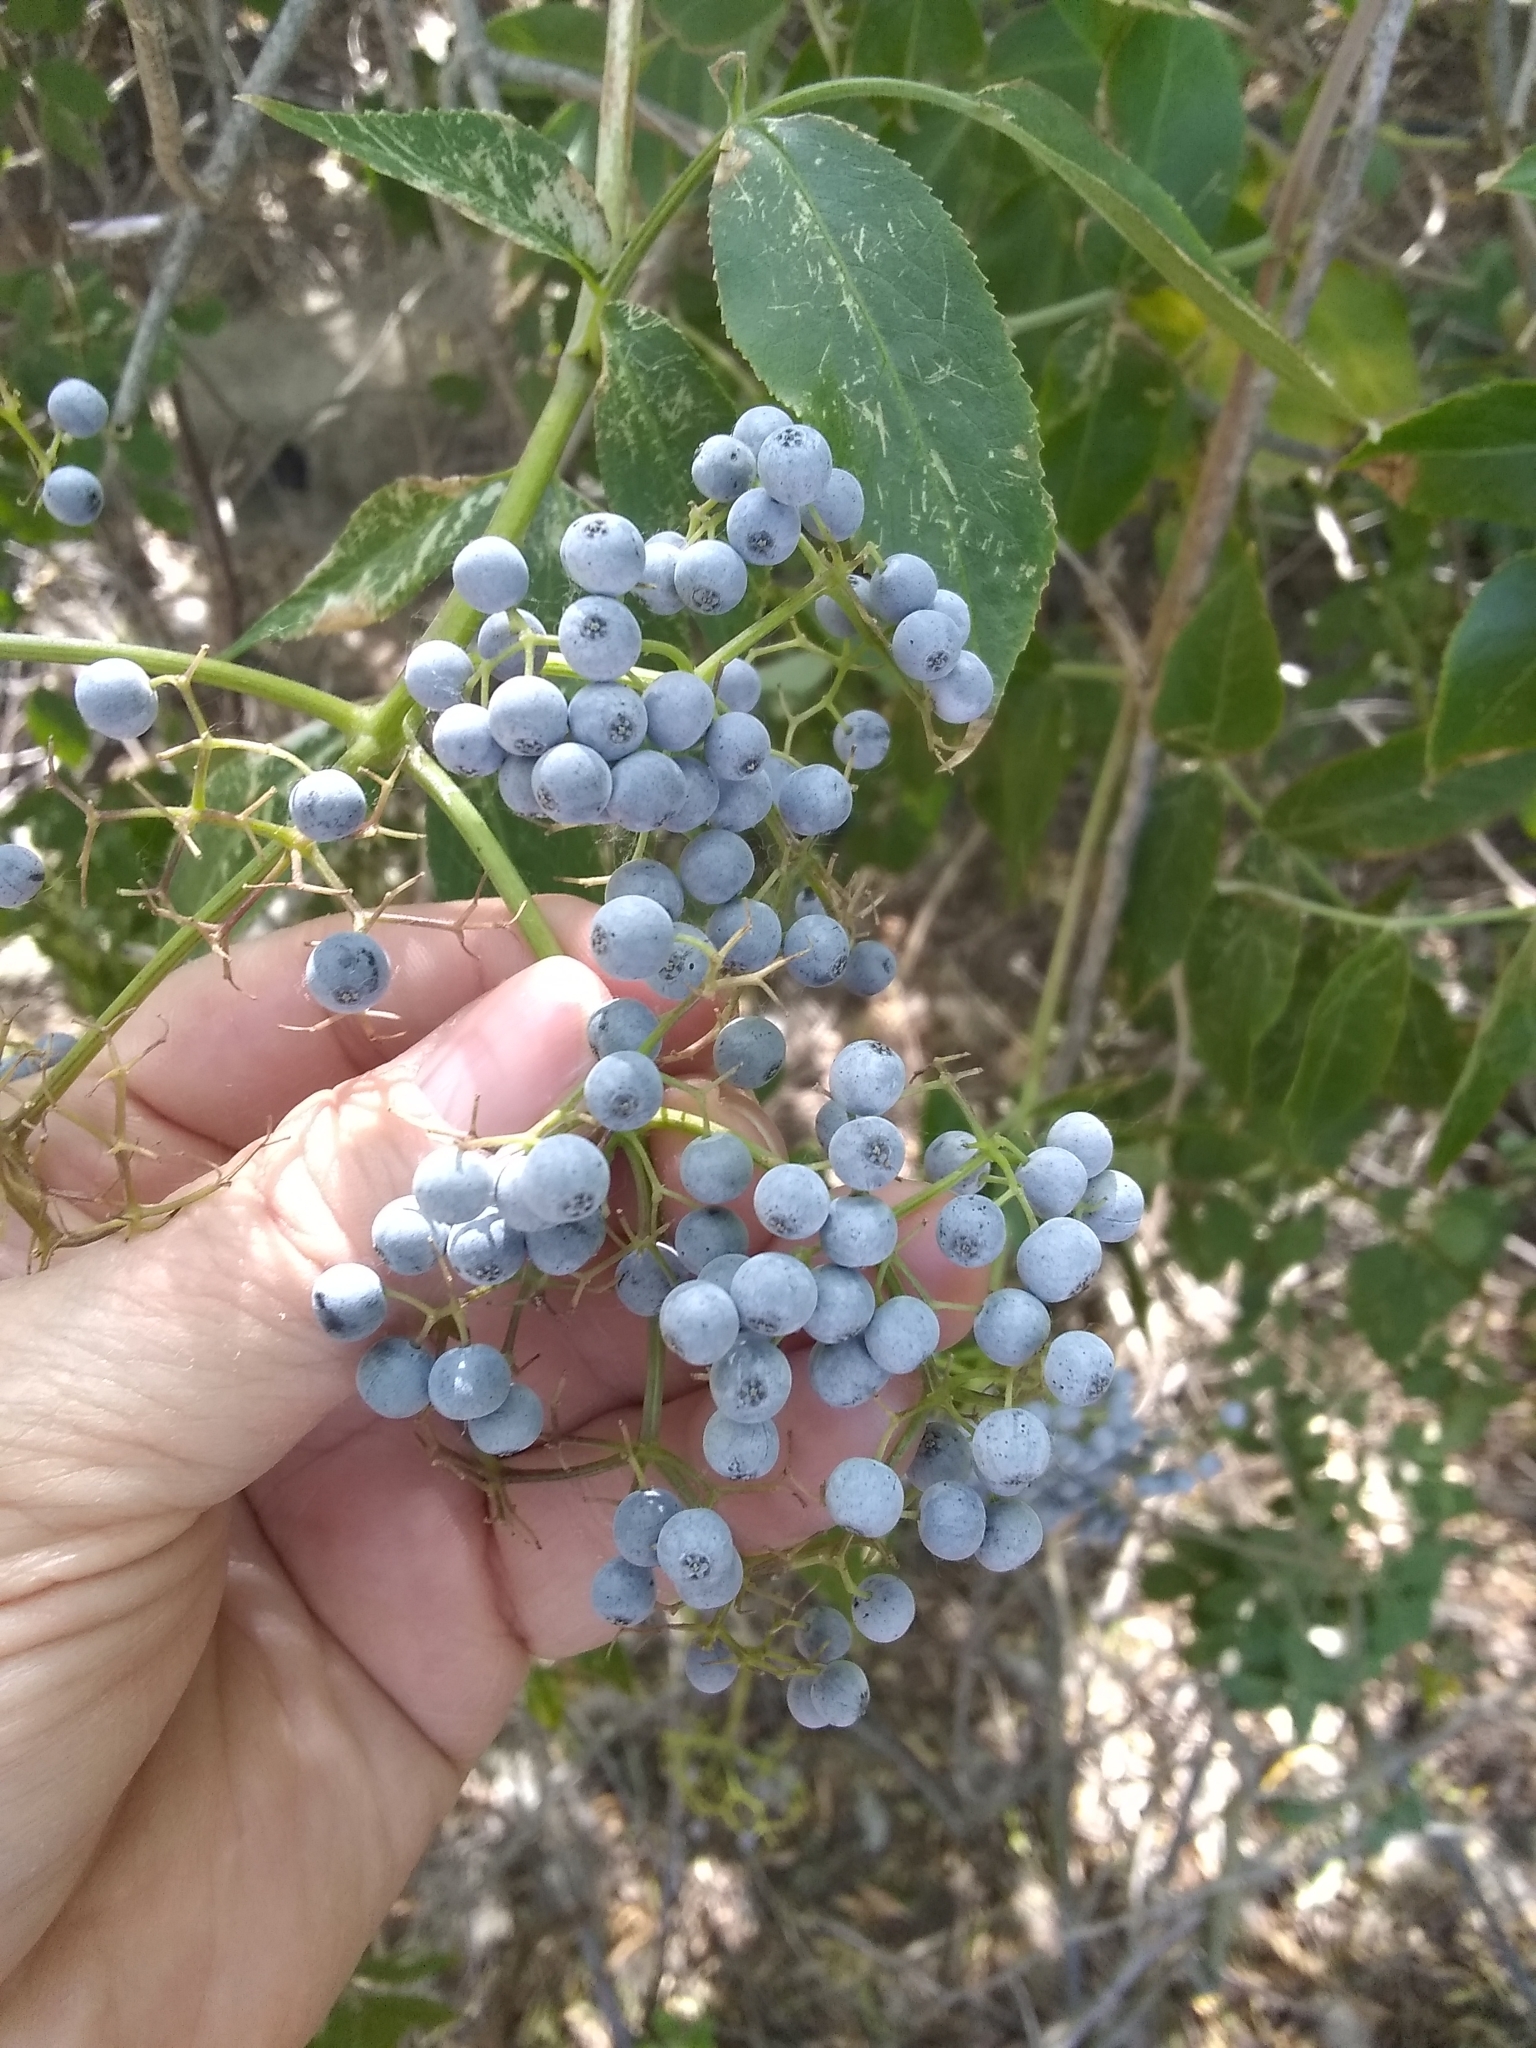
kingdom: Plantae
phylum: Tracheophyta
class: Magnoliopsida
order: Dipsacales
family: Viburnaceae
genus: Sambucus
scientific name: Sambucus cerulea
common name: Blue elder
